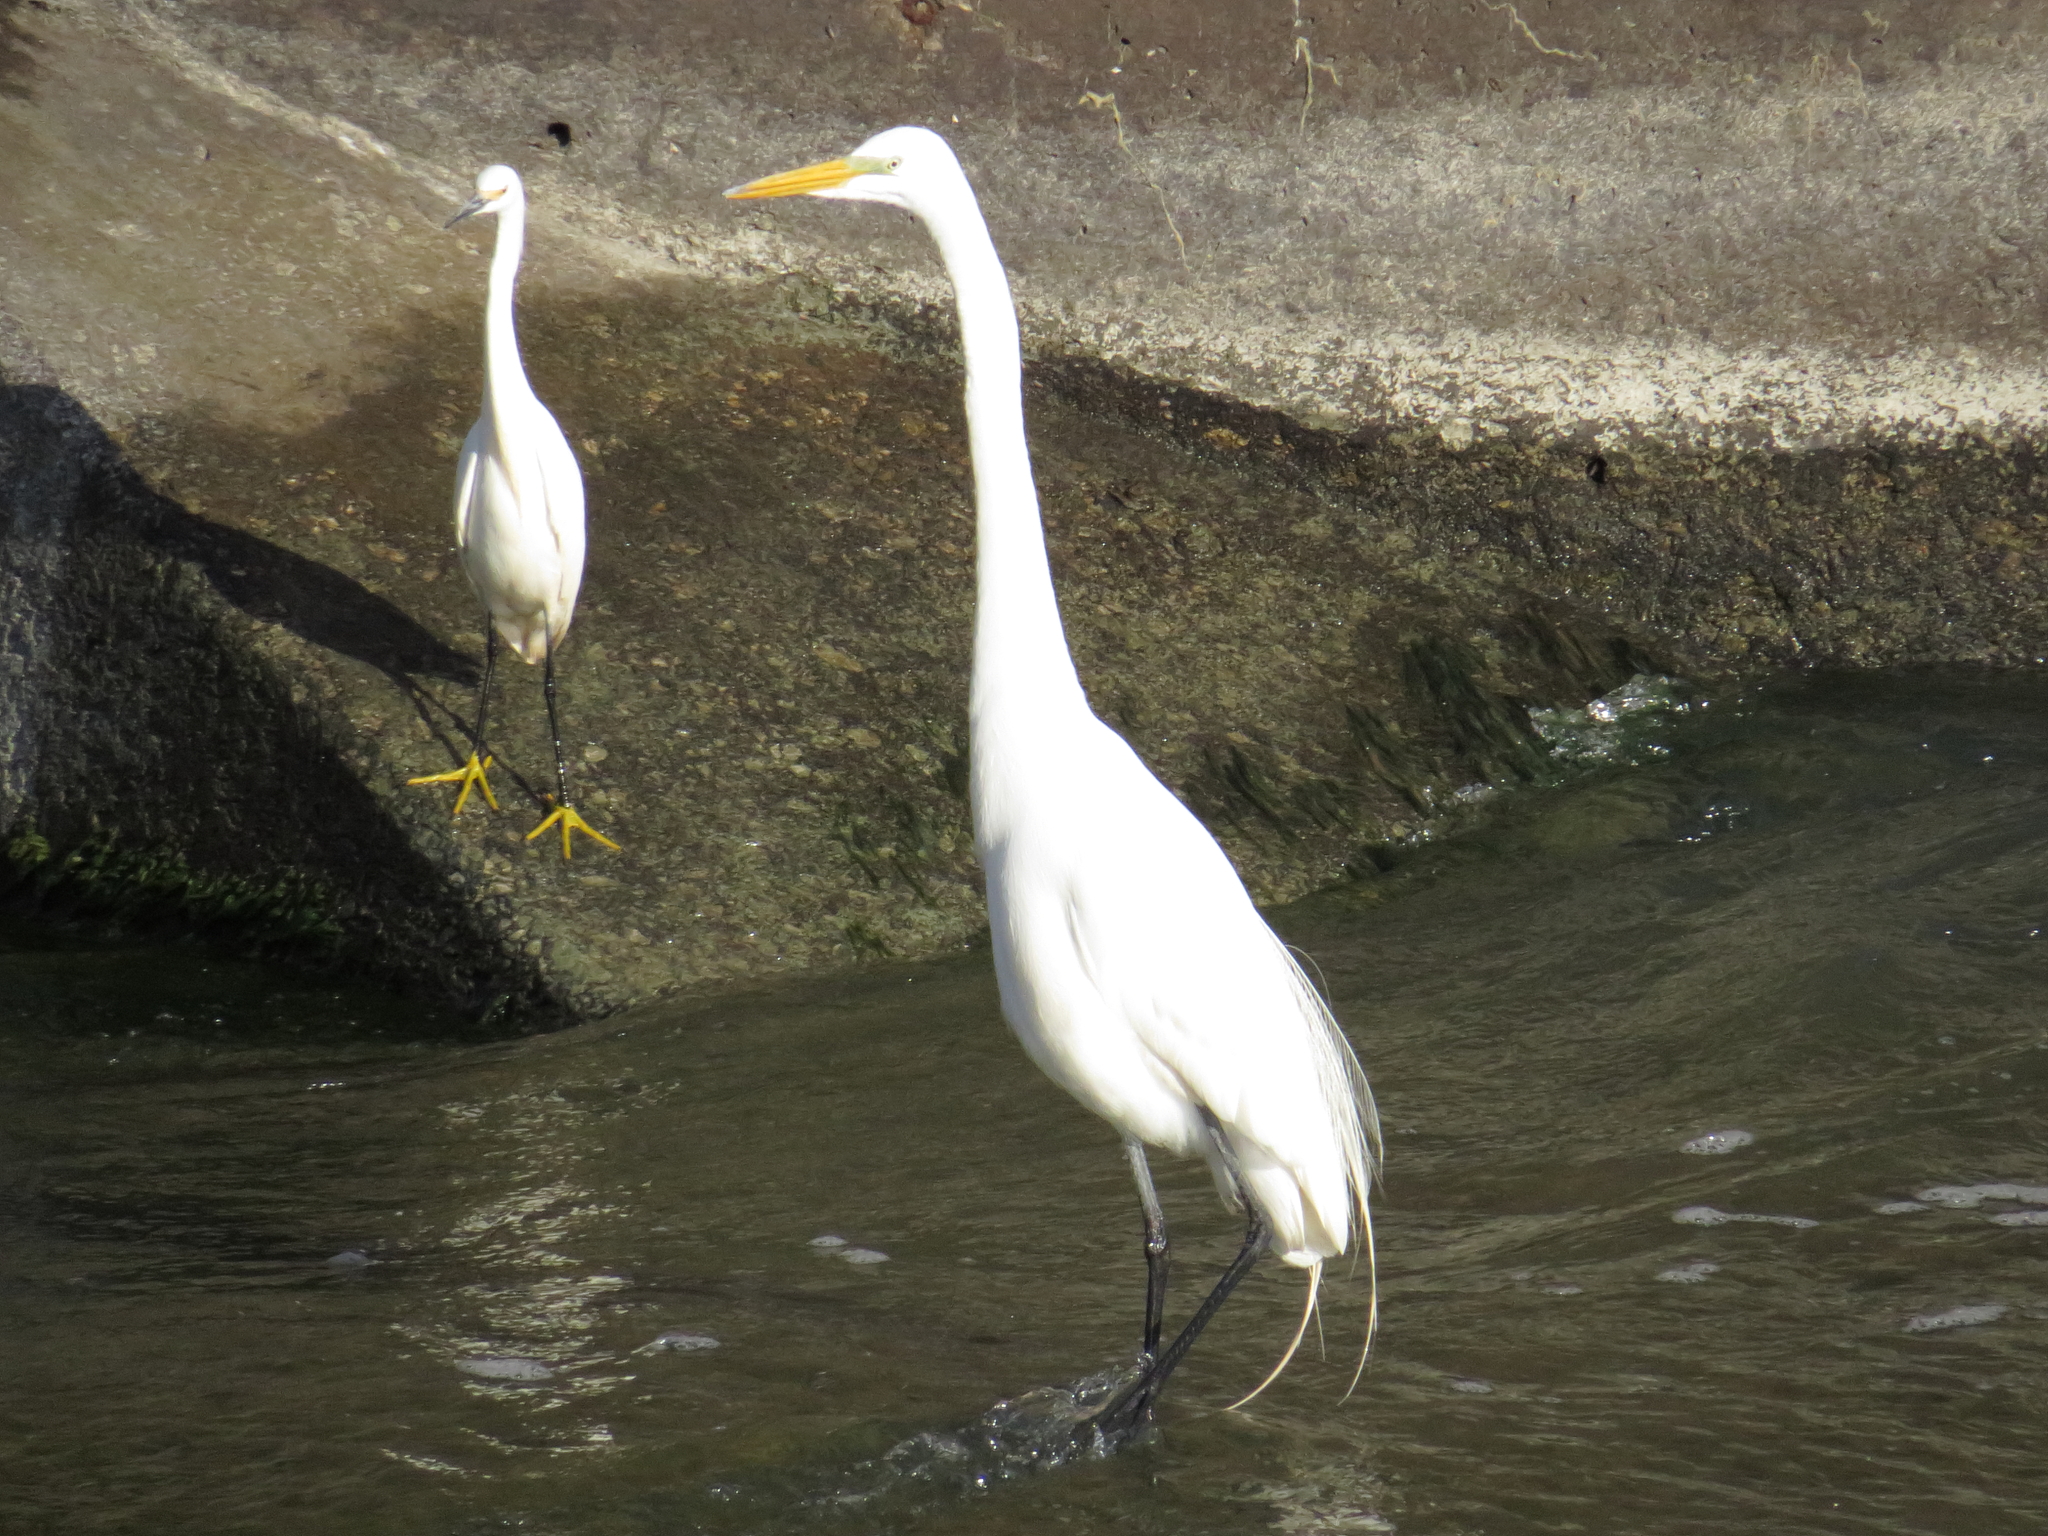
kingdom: Animalia
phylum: Chordata
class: Aves
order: Pelecaniformes
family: Ardeidae
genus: Ardea
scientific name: Ardea alba
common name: Great egret
